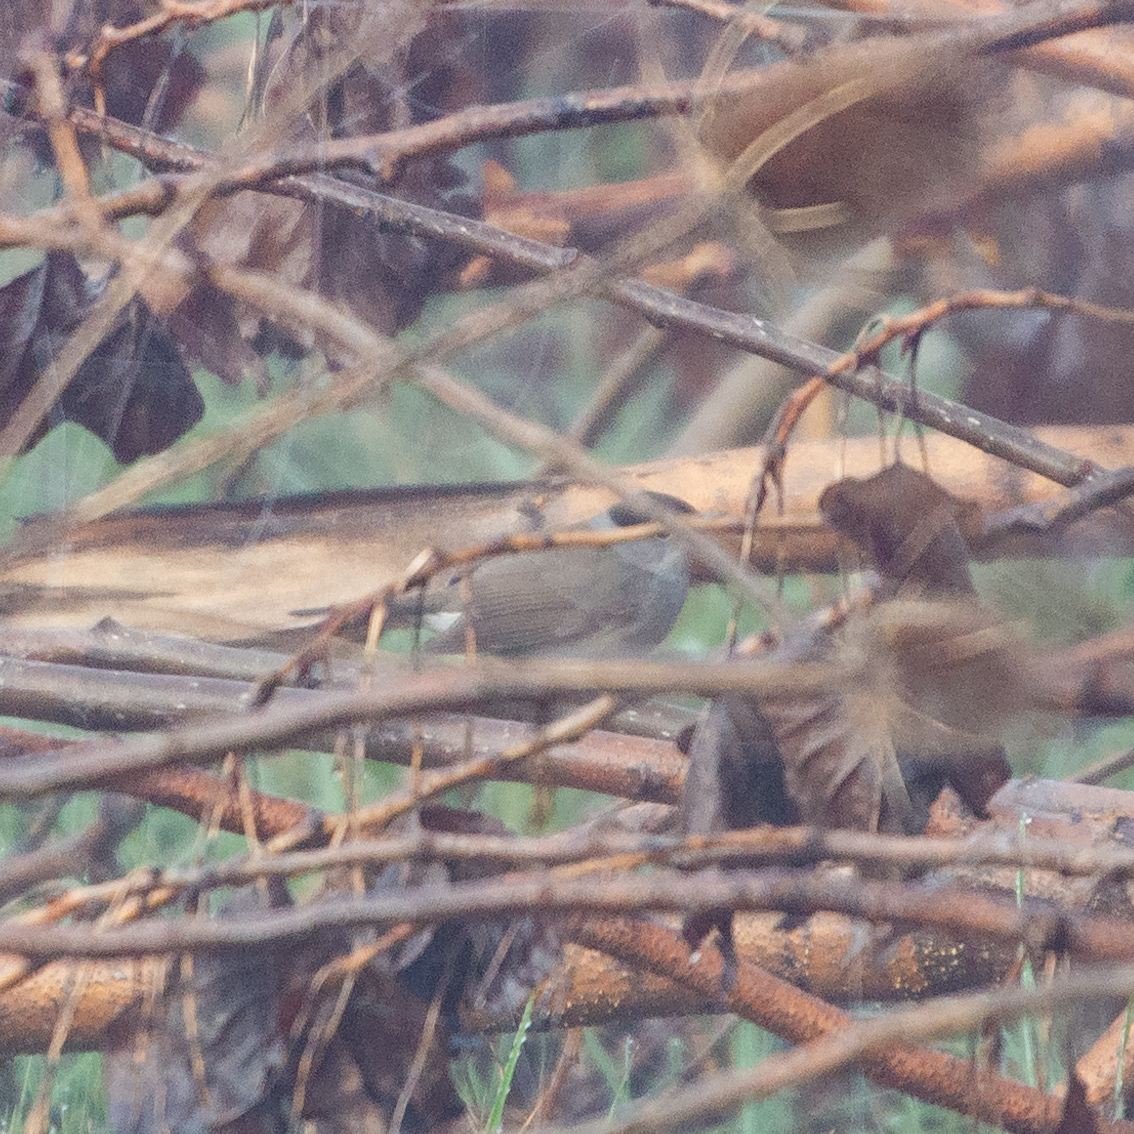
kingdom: Animalia
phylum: Chordata
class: Aves
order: Passeriformes
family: Sylviidae
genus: Sylvia
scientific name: Sylvia atricapilla
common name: Eurasian blackcap
